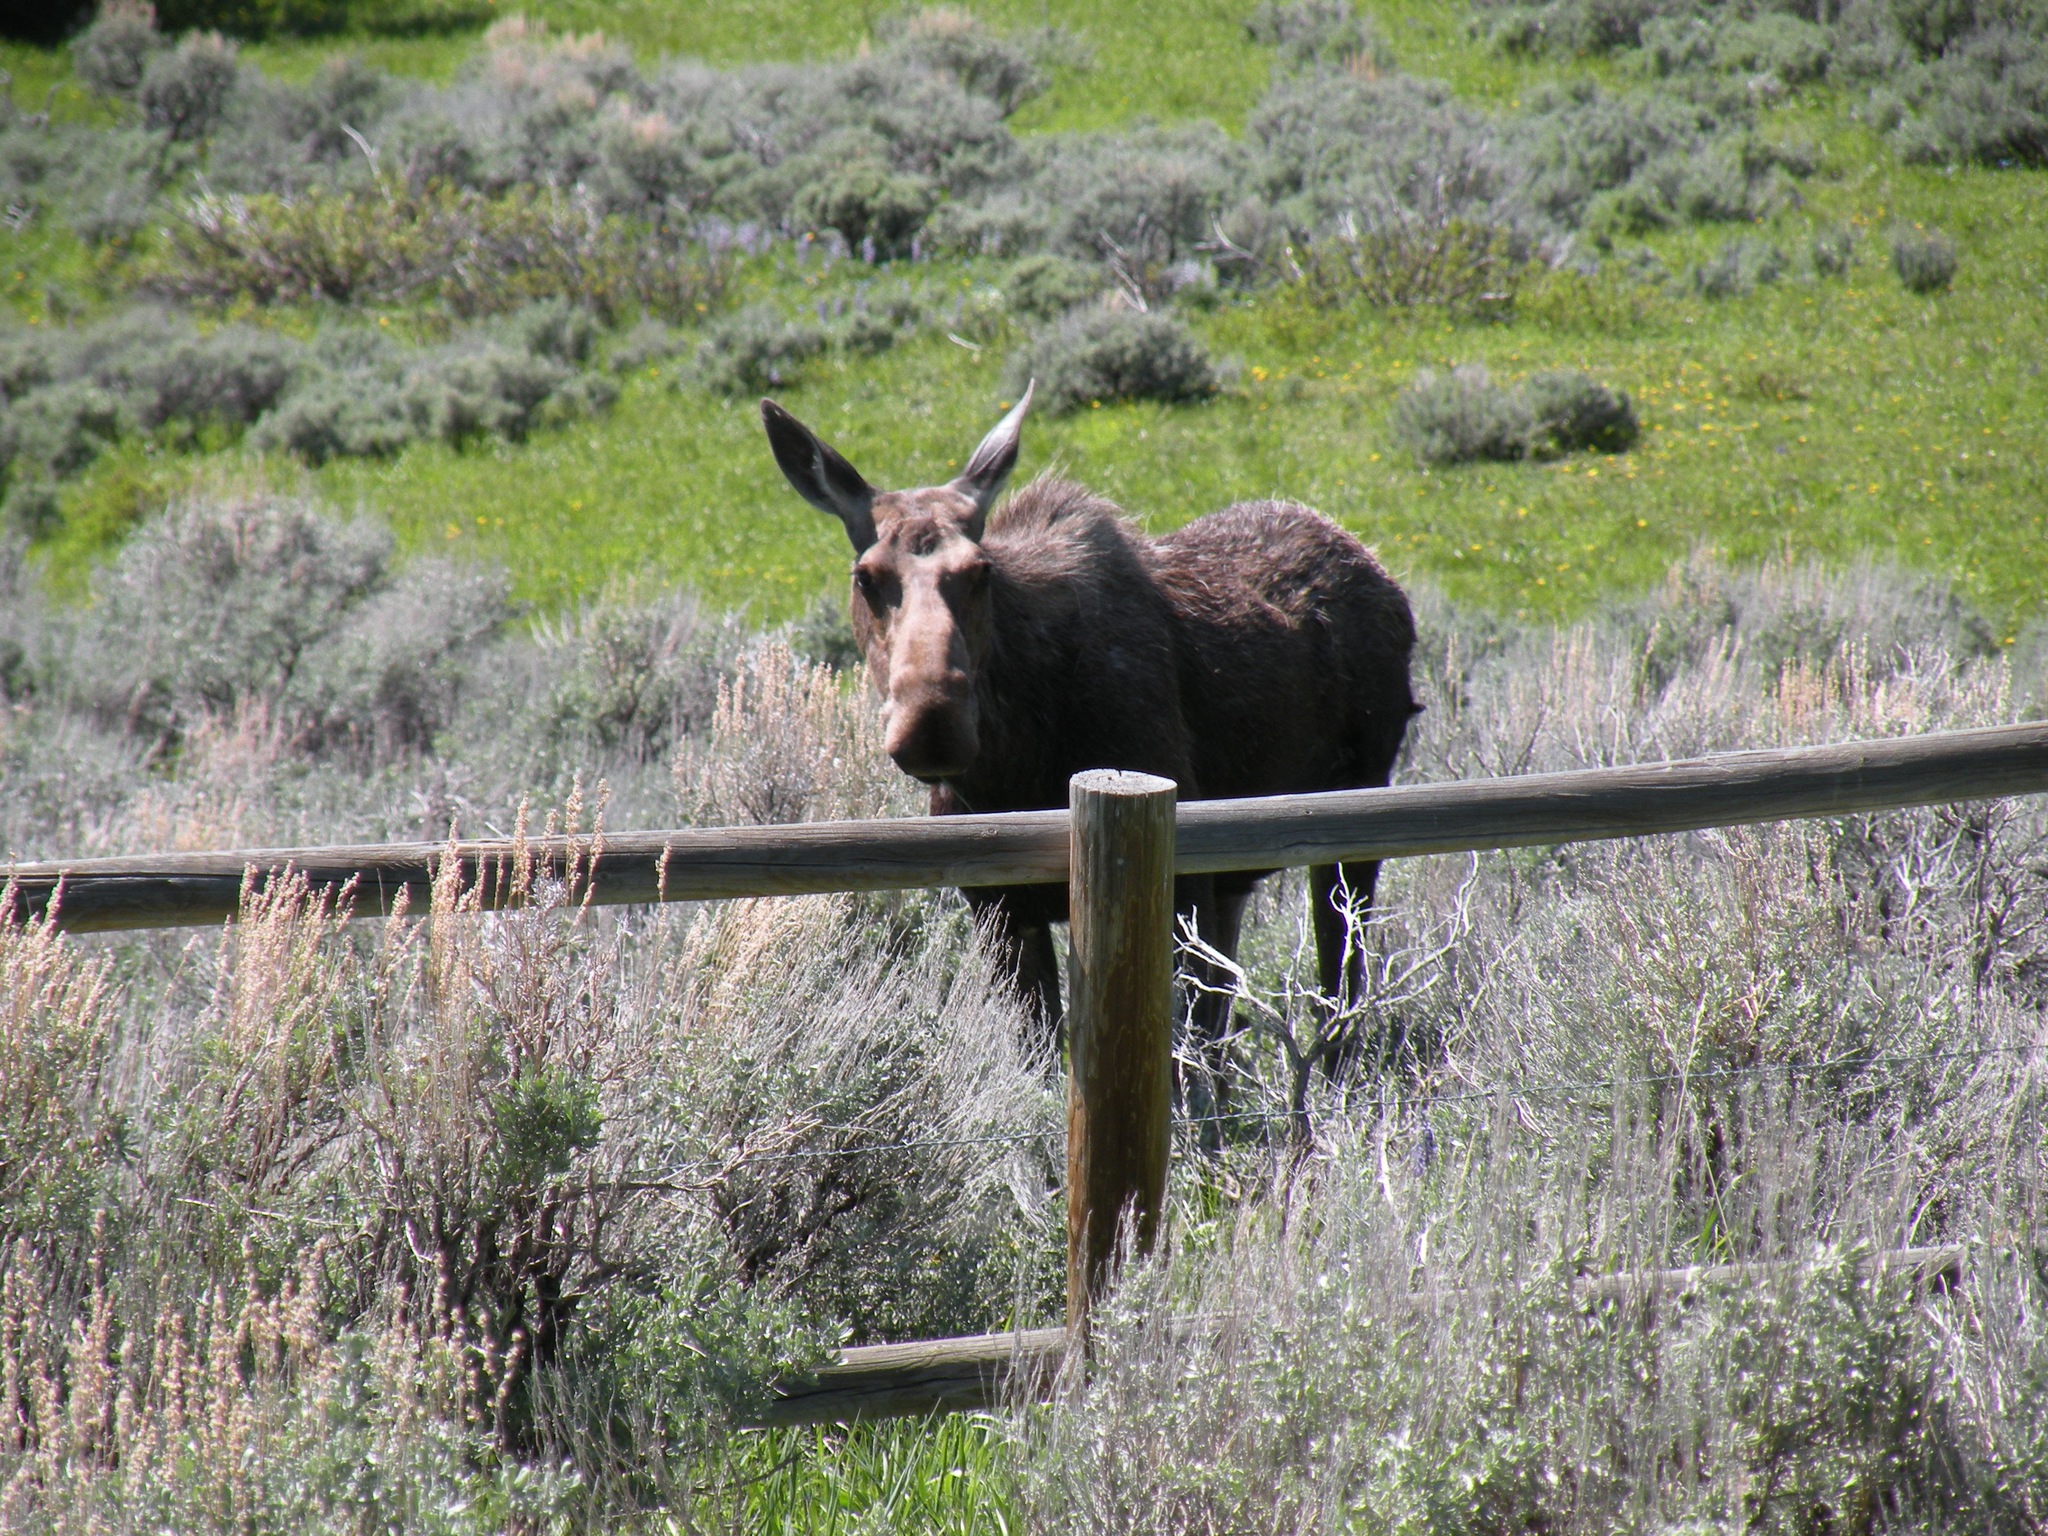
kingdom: Animalia
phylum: Chordata
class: Mammalia
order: Artiodactyla
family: Cervidae
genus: Alces
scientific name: Alces alces
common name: Moose
